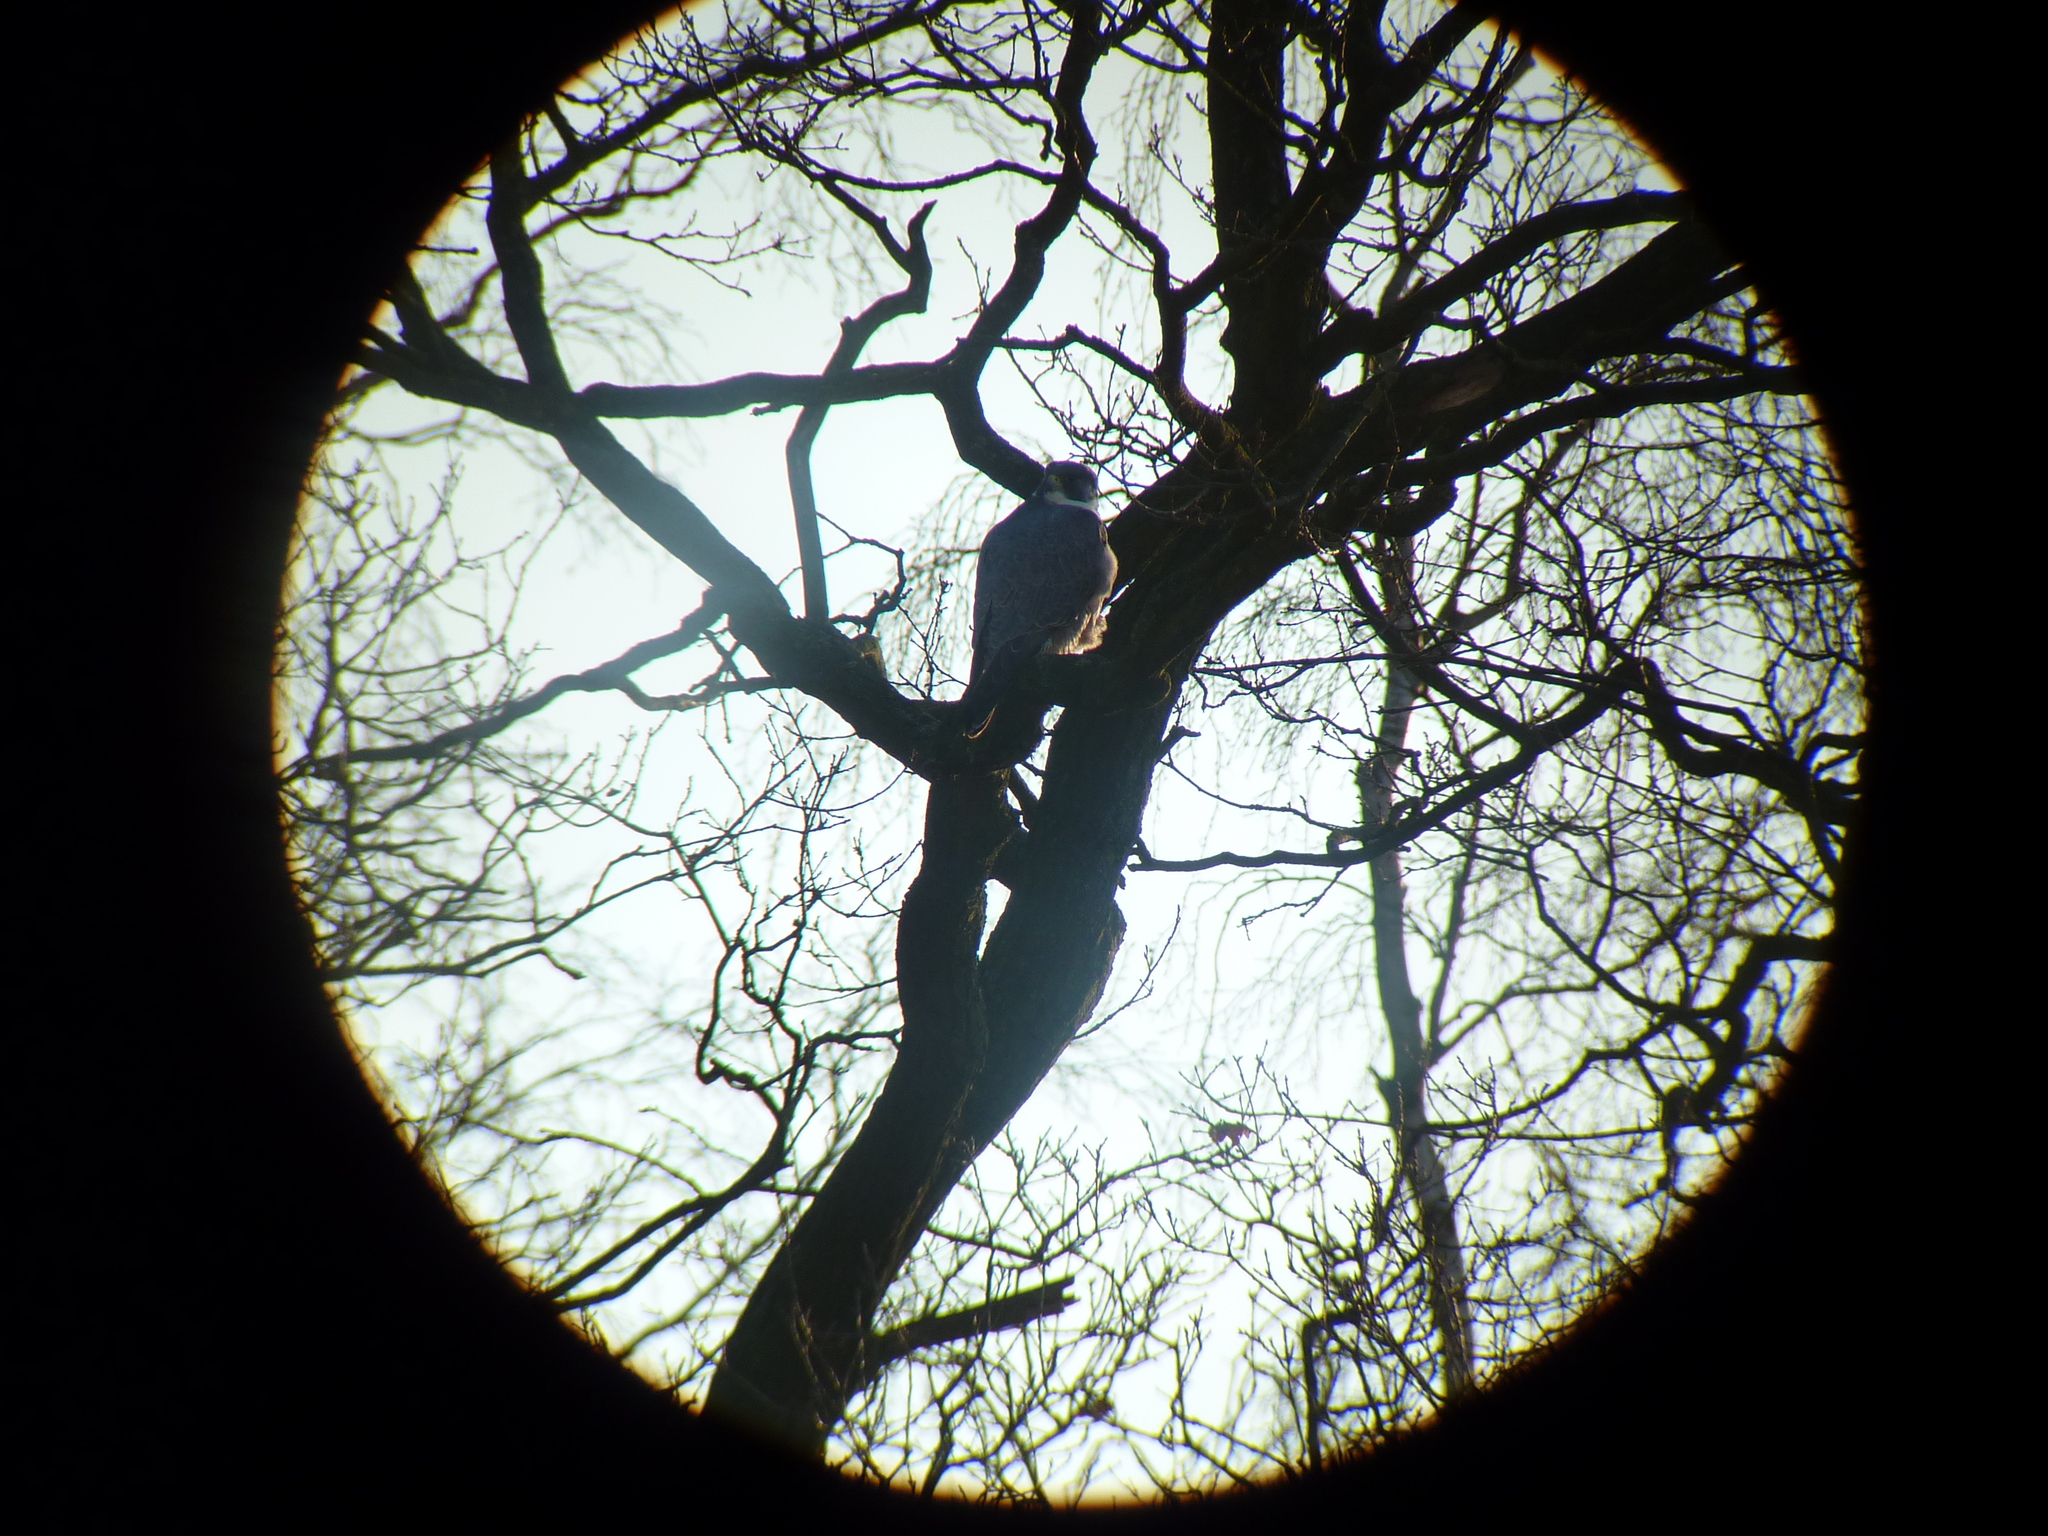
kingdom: Animalia
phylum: Chordata
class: Aves
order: Falconiformes
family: Falconidae
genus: Falco
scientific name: Falco peregrinus
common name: Peregrine falcon
